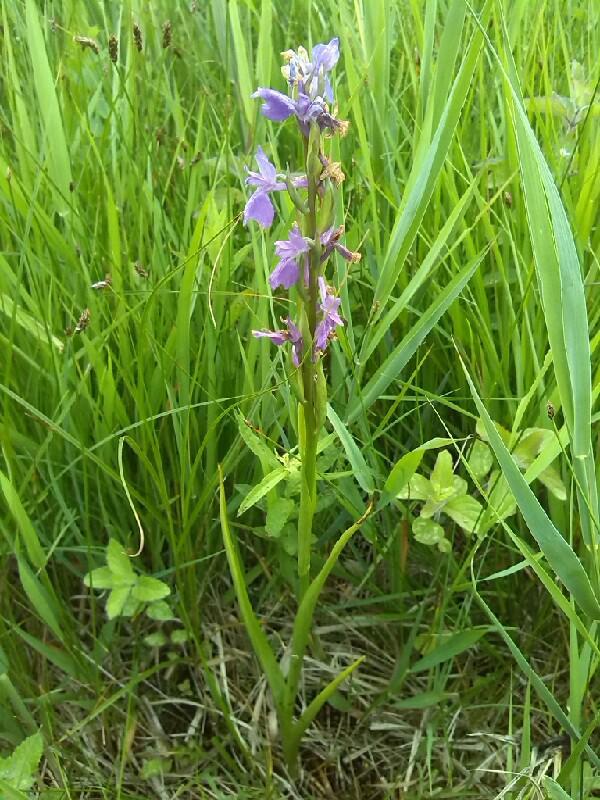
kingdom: Plantae
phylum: Tracheophyta
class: Liliopsida
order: Asparagales
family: Orchidaceae
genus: Anacamptis
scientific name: Anacamptis palustris
